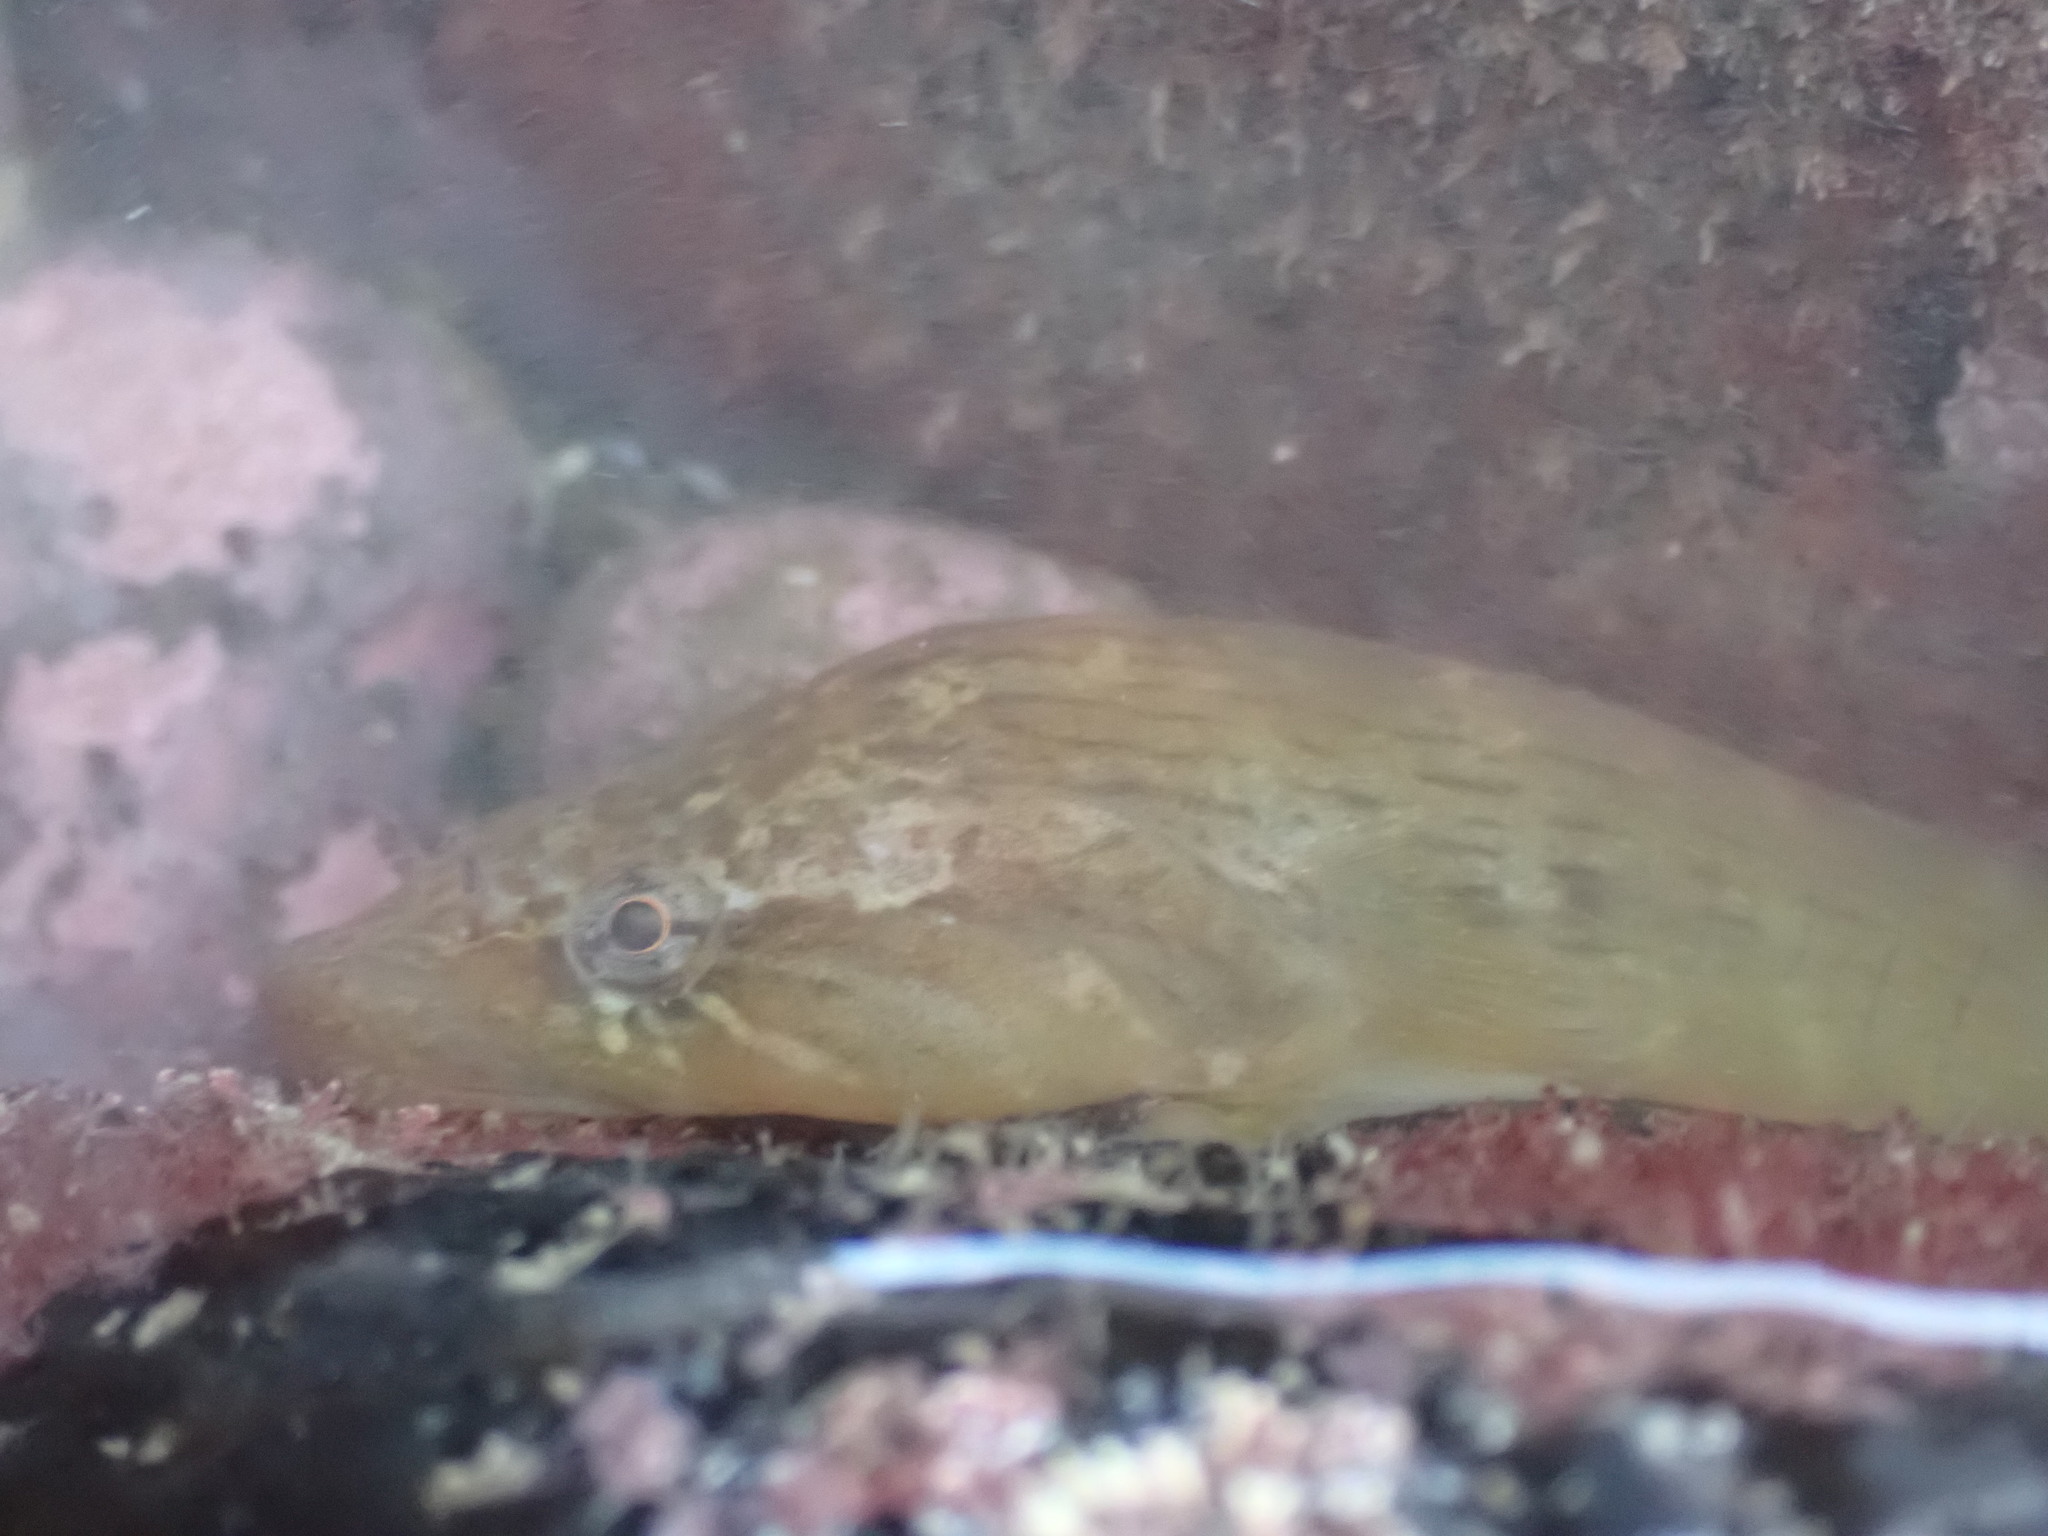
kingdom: Animalia
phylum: Chordata
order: Gobiesociformes
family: Gobiesocidae
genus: Trachelochismus
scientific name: Trachelochismus pinnulatus
